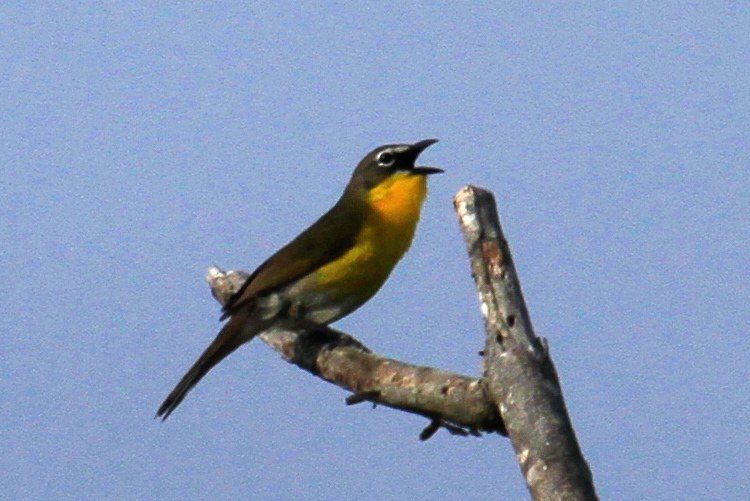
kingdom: Animalia
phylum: Chordata
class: Aves
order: Passeriformes
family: Parulidae
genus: Icteria
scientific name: Icteria virens
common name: Yellow-breasted chat
